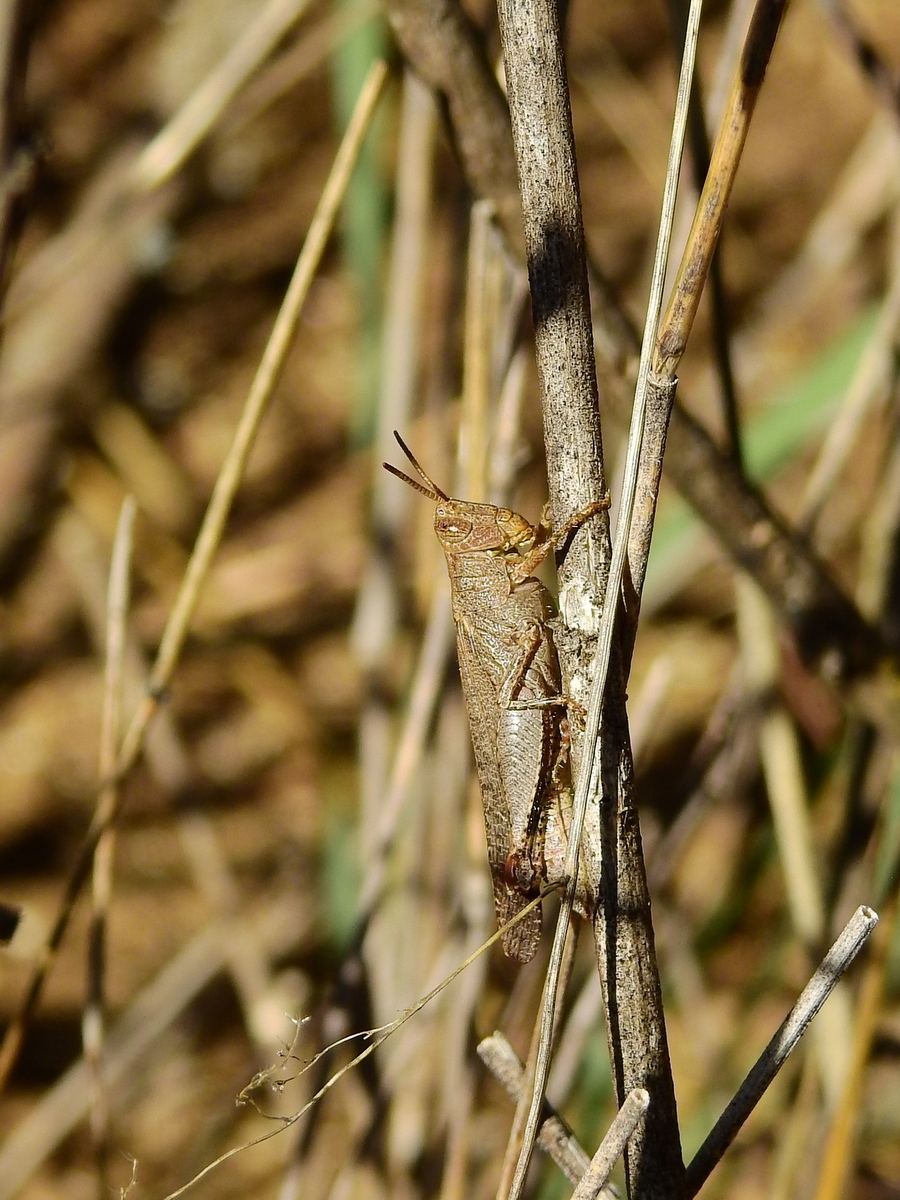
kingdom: Animalia
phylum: Arthropoda
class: Insecta
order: Orthoptera
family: Acrididae
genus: Abracris
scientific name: Abracris dilecta
